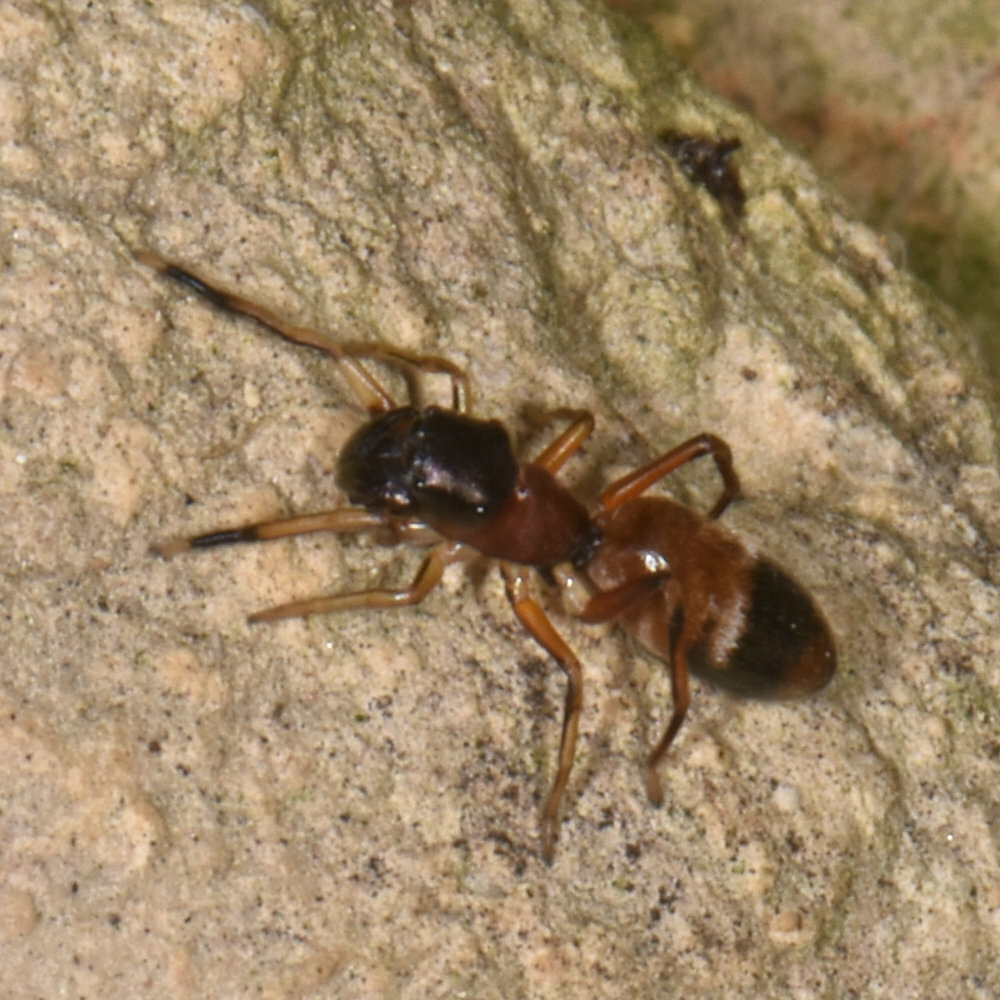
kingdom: Animalia
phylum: Arthropoda
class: Arachnida
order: Araneae
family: Salticidae
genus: Myrmarachne
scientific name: Myrmarachne formicaria
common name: Ant mimic jumping spider
